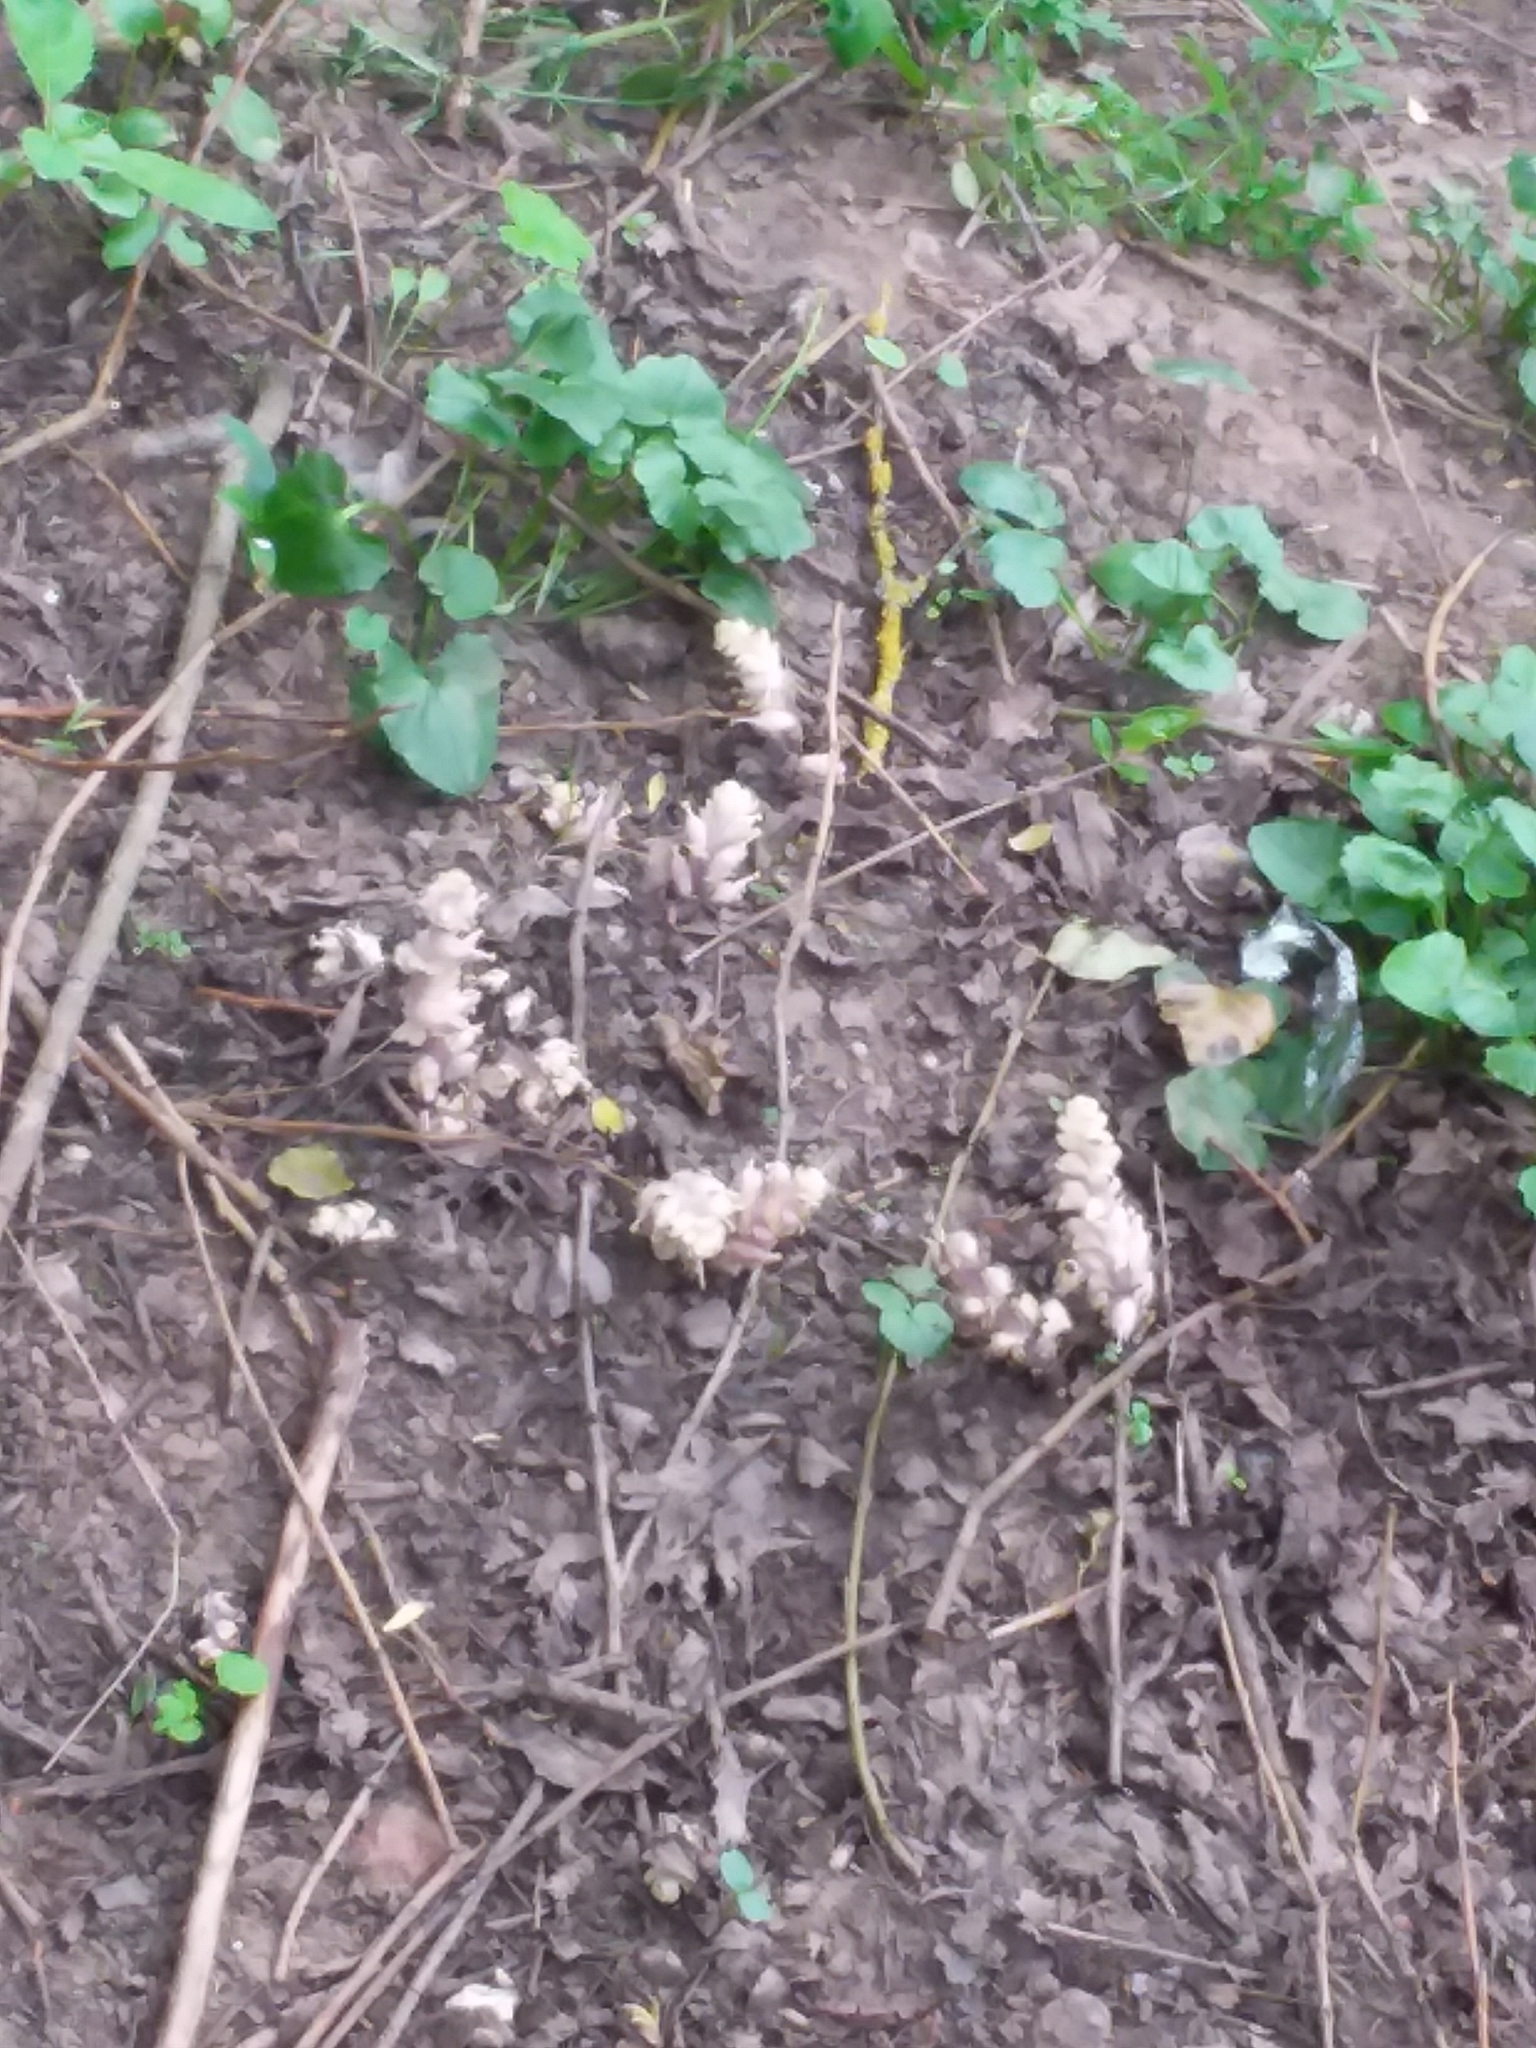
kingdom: Plantae
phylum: Tracheophyta
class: Magnoliopsida
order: Lamiales
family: Orobanchaceae
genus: Lathraea
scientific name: Lathraea squamaria
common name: Toothwort
